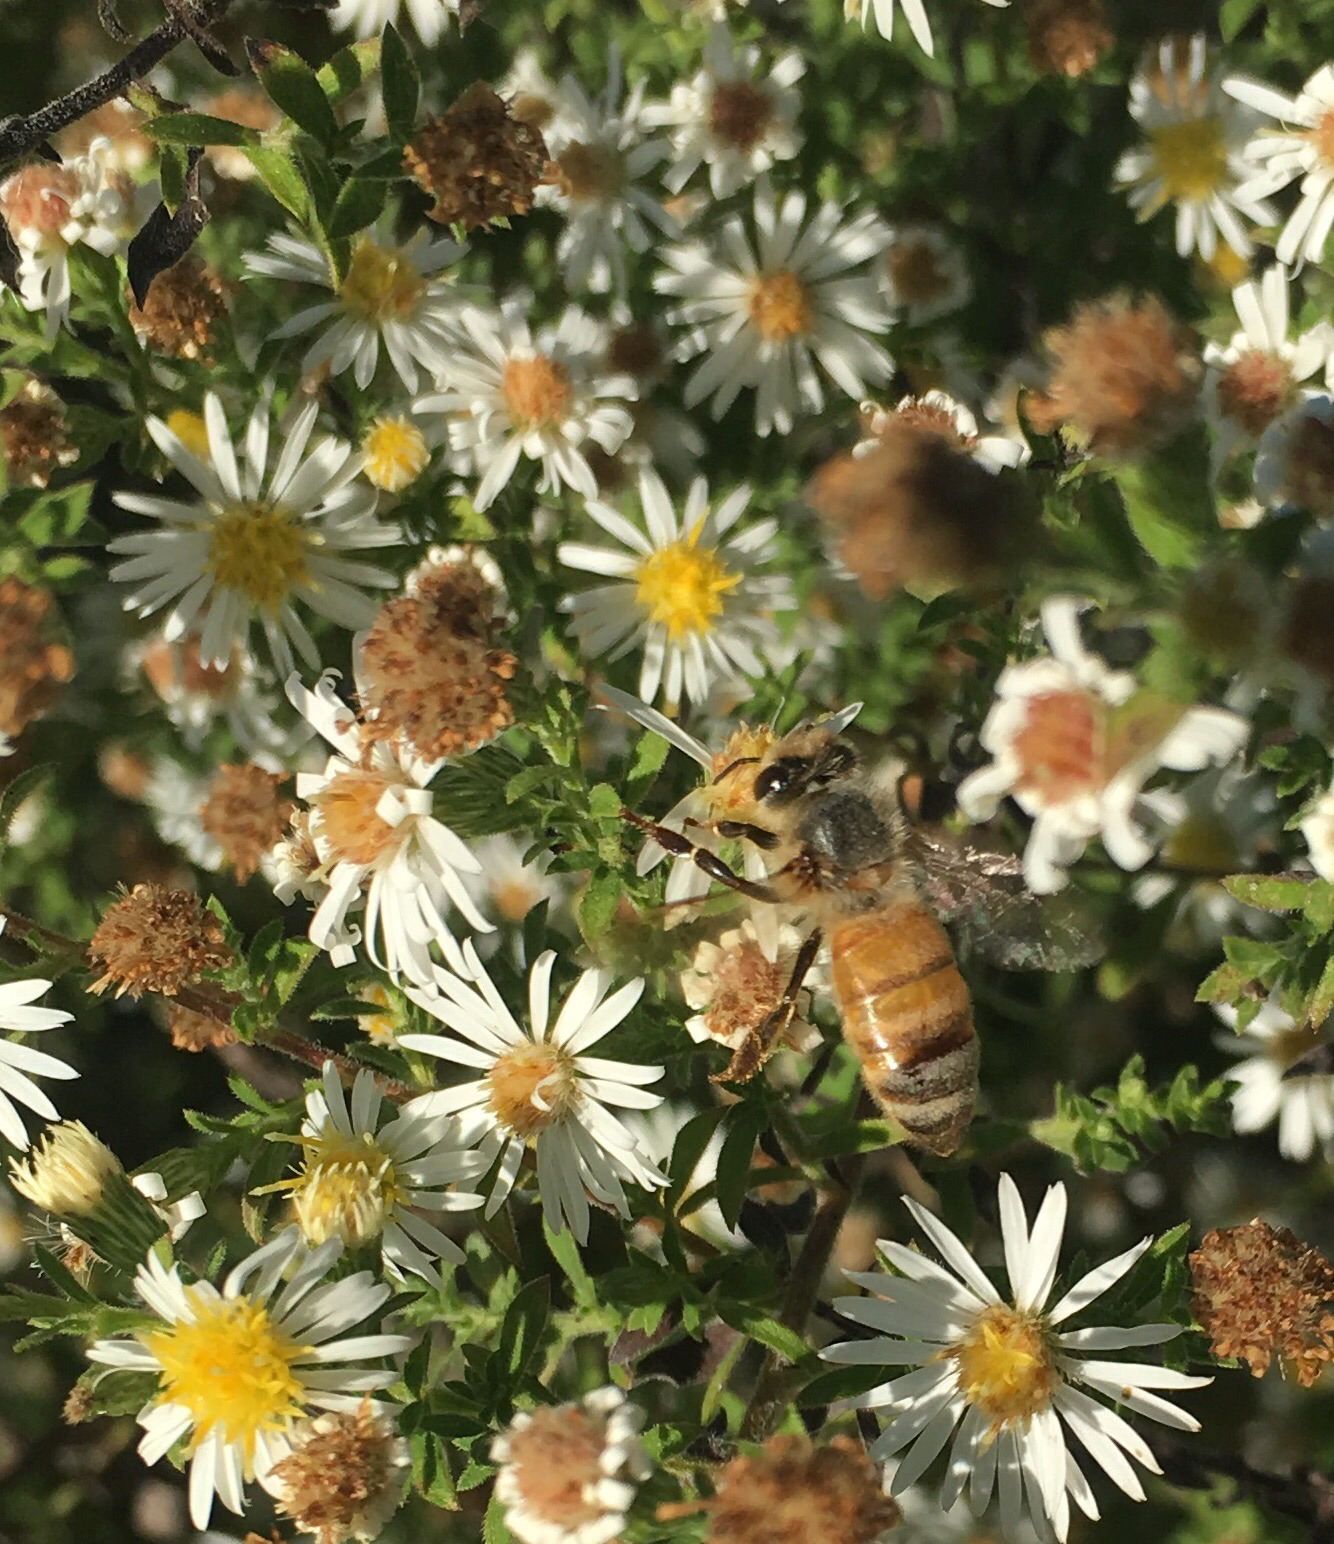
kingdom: Animalia
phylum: Arthropoda
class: Insecta
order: Hymenoptera
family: Apidae
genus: Apis
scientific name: Apis mellifera
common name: Honey bee
